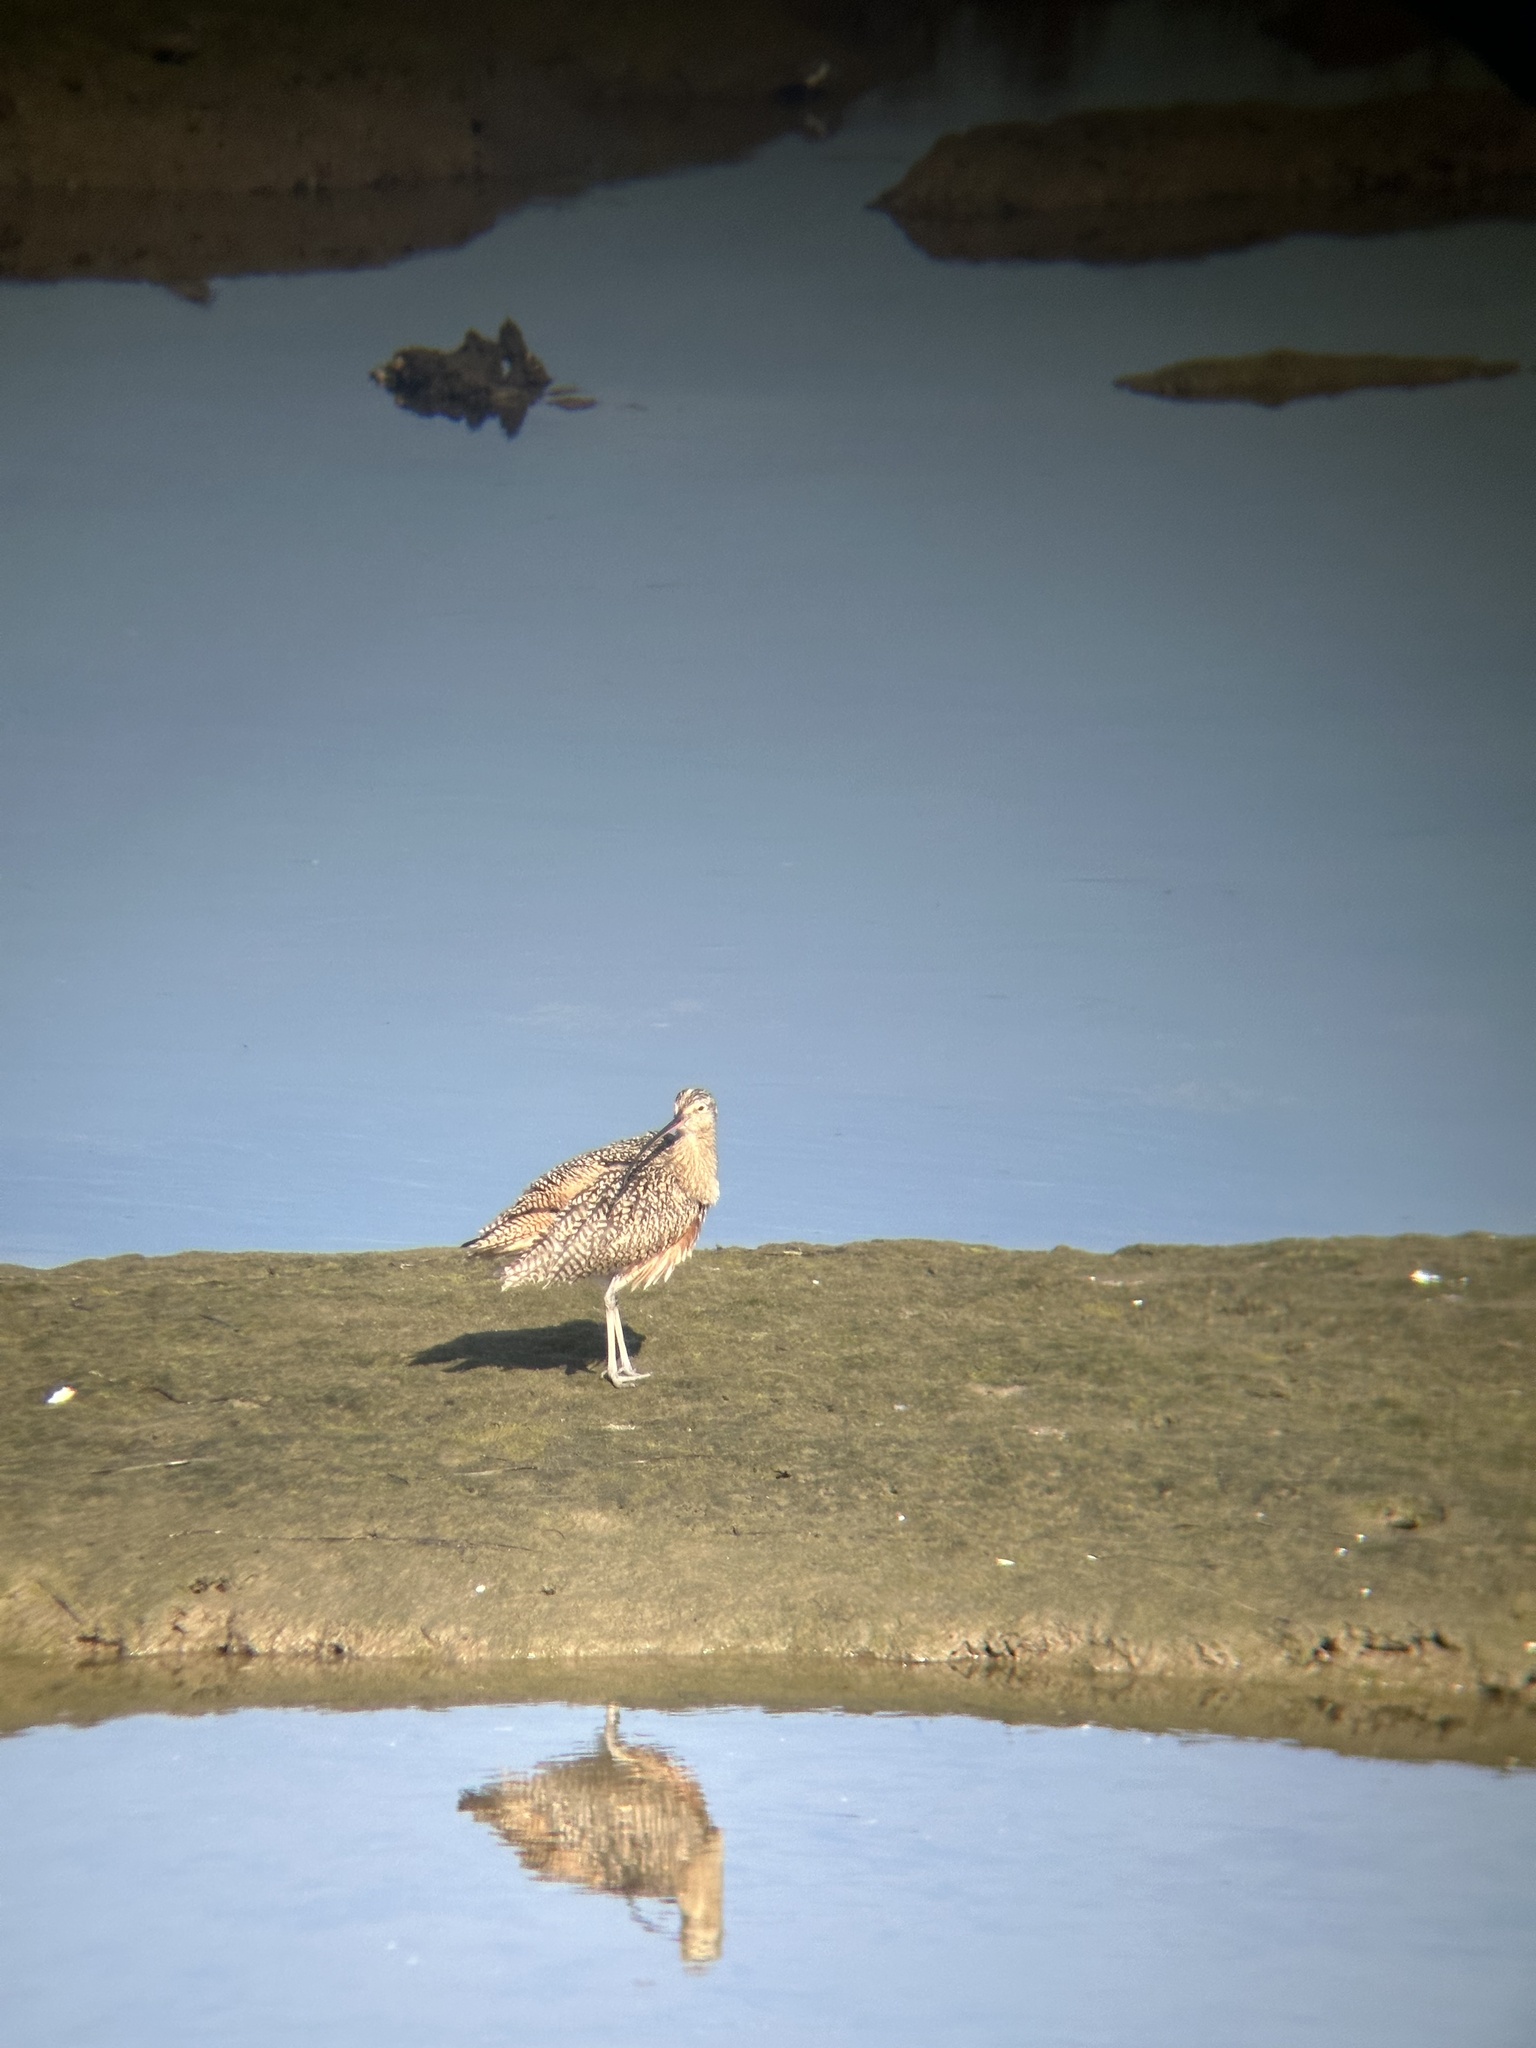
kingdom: Animalia
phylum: Chordata
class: Aves
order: Charadriiformes
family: Scolopacidae
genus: Numenius
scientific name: Numenius americanus
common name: Long-billed curlew
